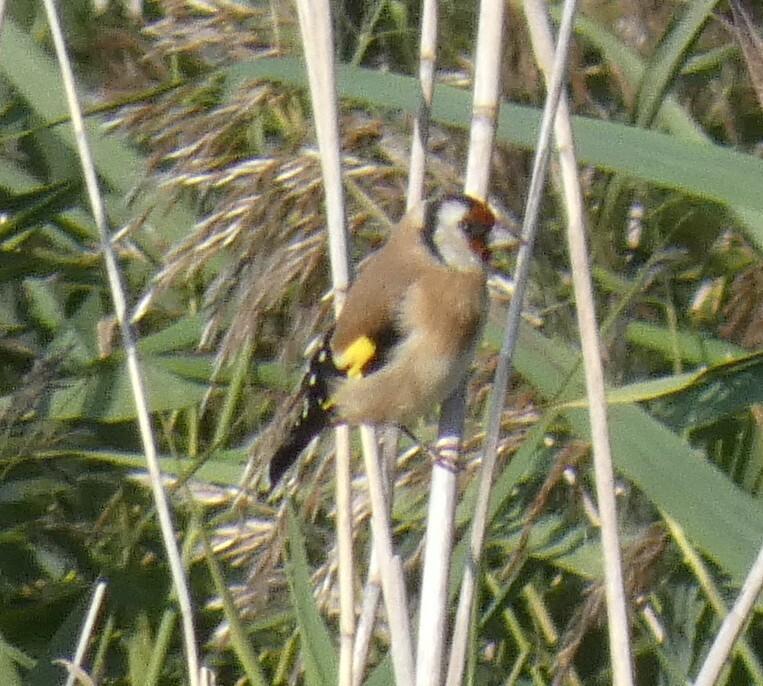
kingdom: Animalia
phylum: Chordata
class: Aves
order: Passeriformes
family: Fringillidae
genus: Carduelis
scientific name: Carduelis carduelis
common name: European goldfinch
